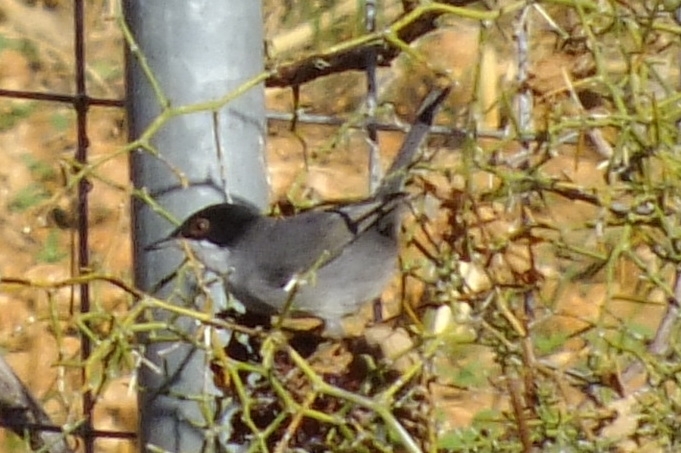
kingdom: Animalia
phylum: Chordata
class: Aves
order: Passeriformes
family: Sylviidae
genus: Curruca
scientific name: Curruca melanocephala
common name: Sardinian warbler
